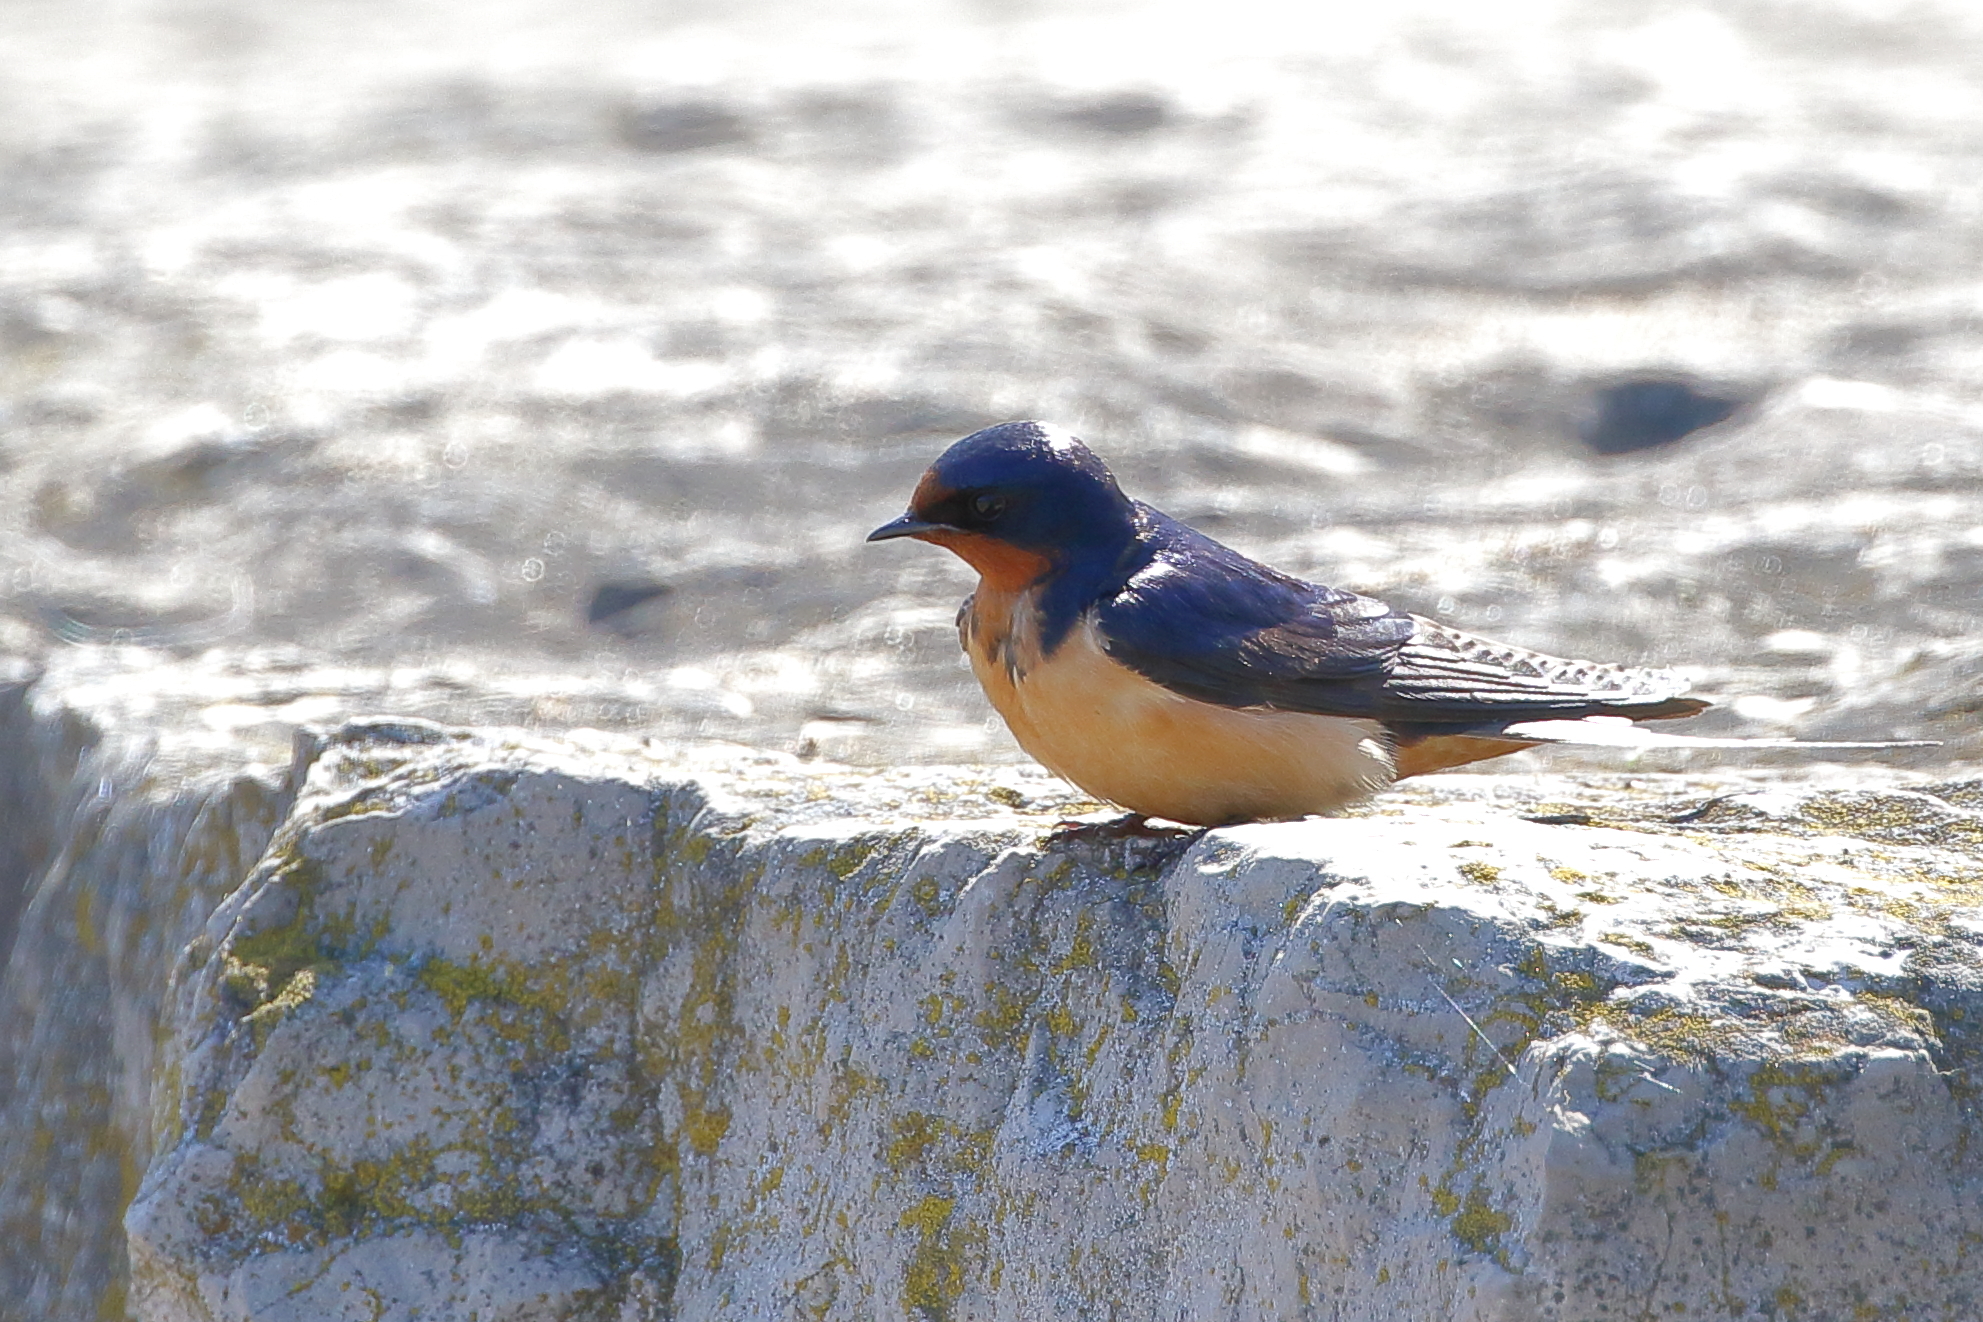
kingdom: Animalia
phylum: Chordata
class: Aves
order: Passeriformes
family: Hirundinidae
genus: Hirundo
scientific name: Hirundo rustica
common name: Barn swallow
